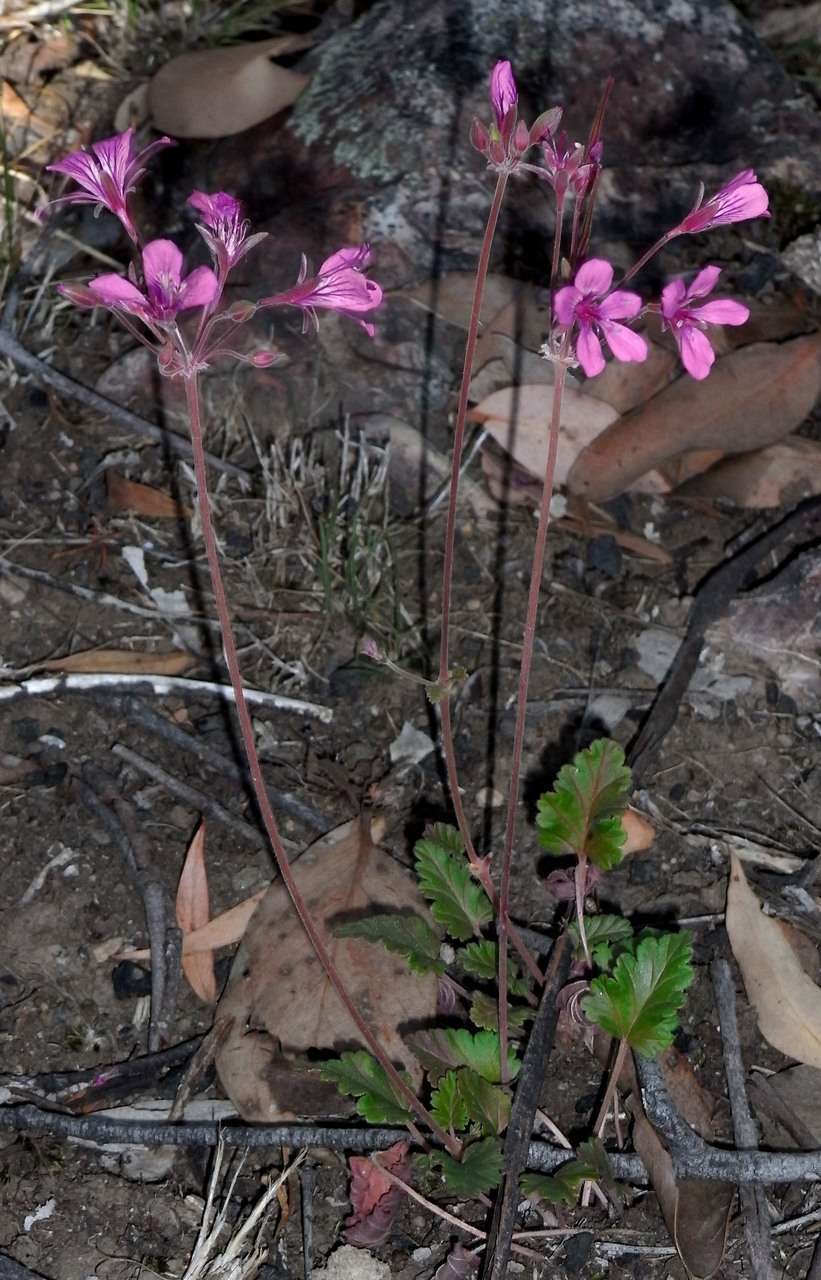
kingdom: Plantae
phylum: Tracheophyta
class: Magnoliopsida
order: Geraniales
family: Geraniaceae
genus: Pelargonium
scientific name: Pelargonium rodneyanum
